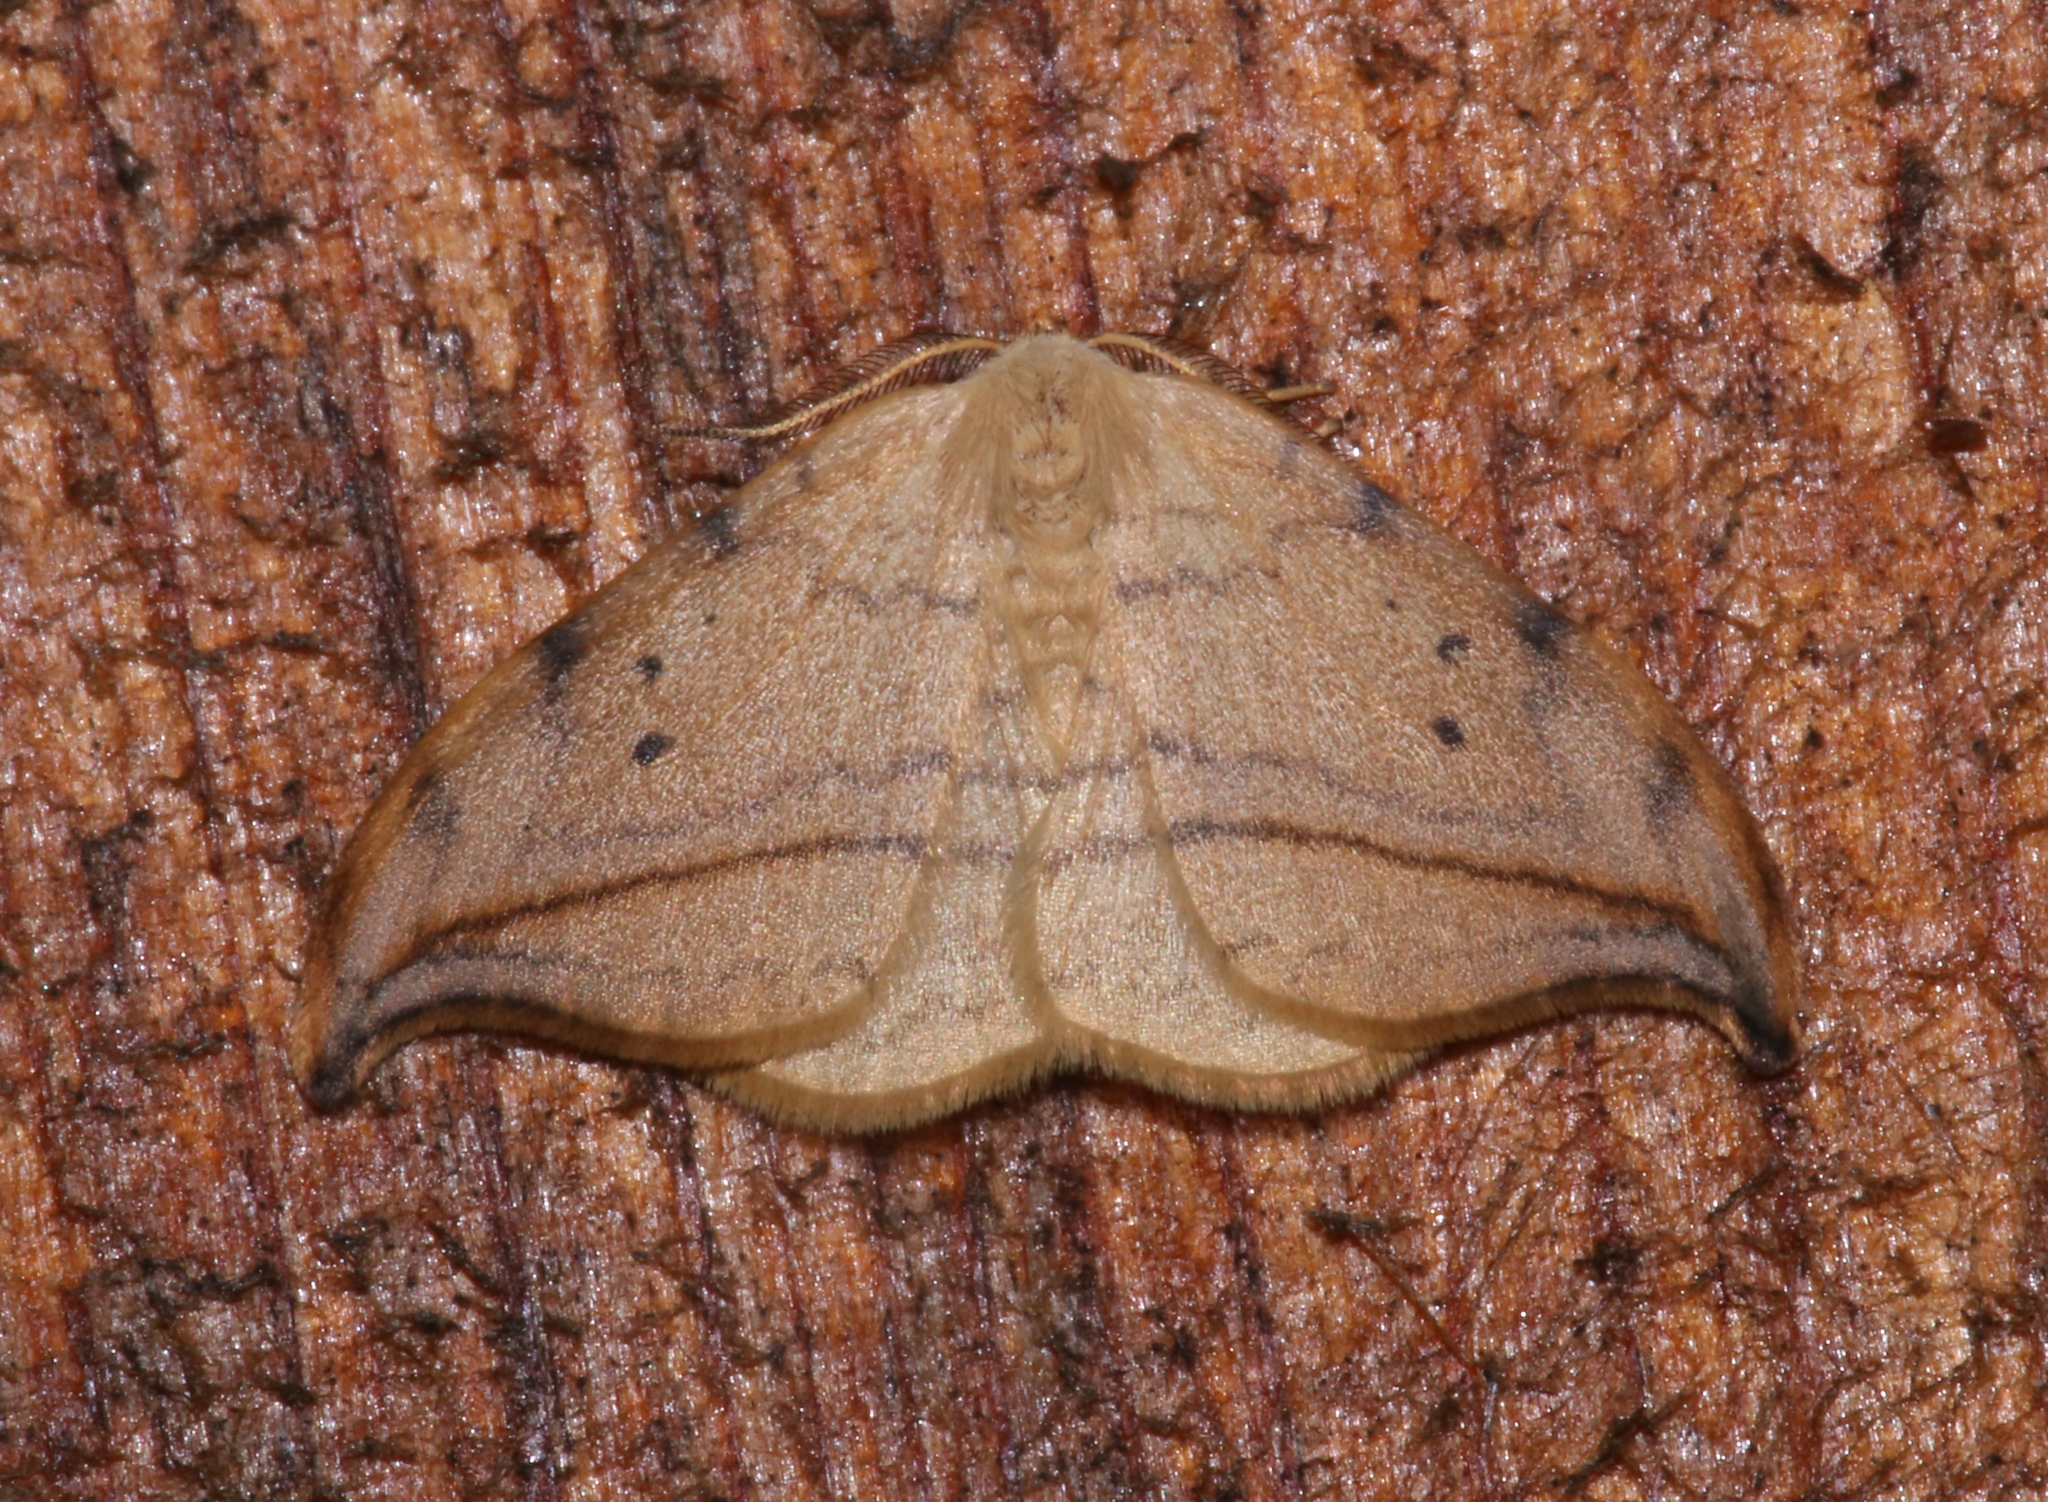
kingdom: Animalia
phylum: Arthropoda
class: Insecta
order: Lepidoptera
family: Drepanidae
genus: Drepana
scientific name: Drepana arcuata
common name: Arched hooktip moth
